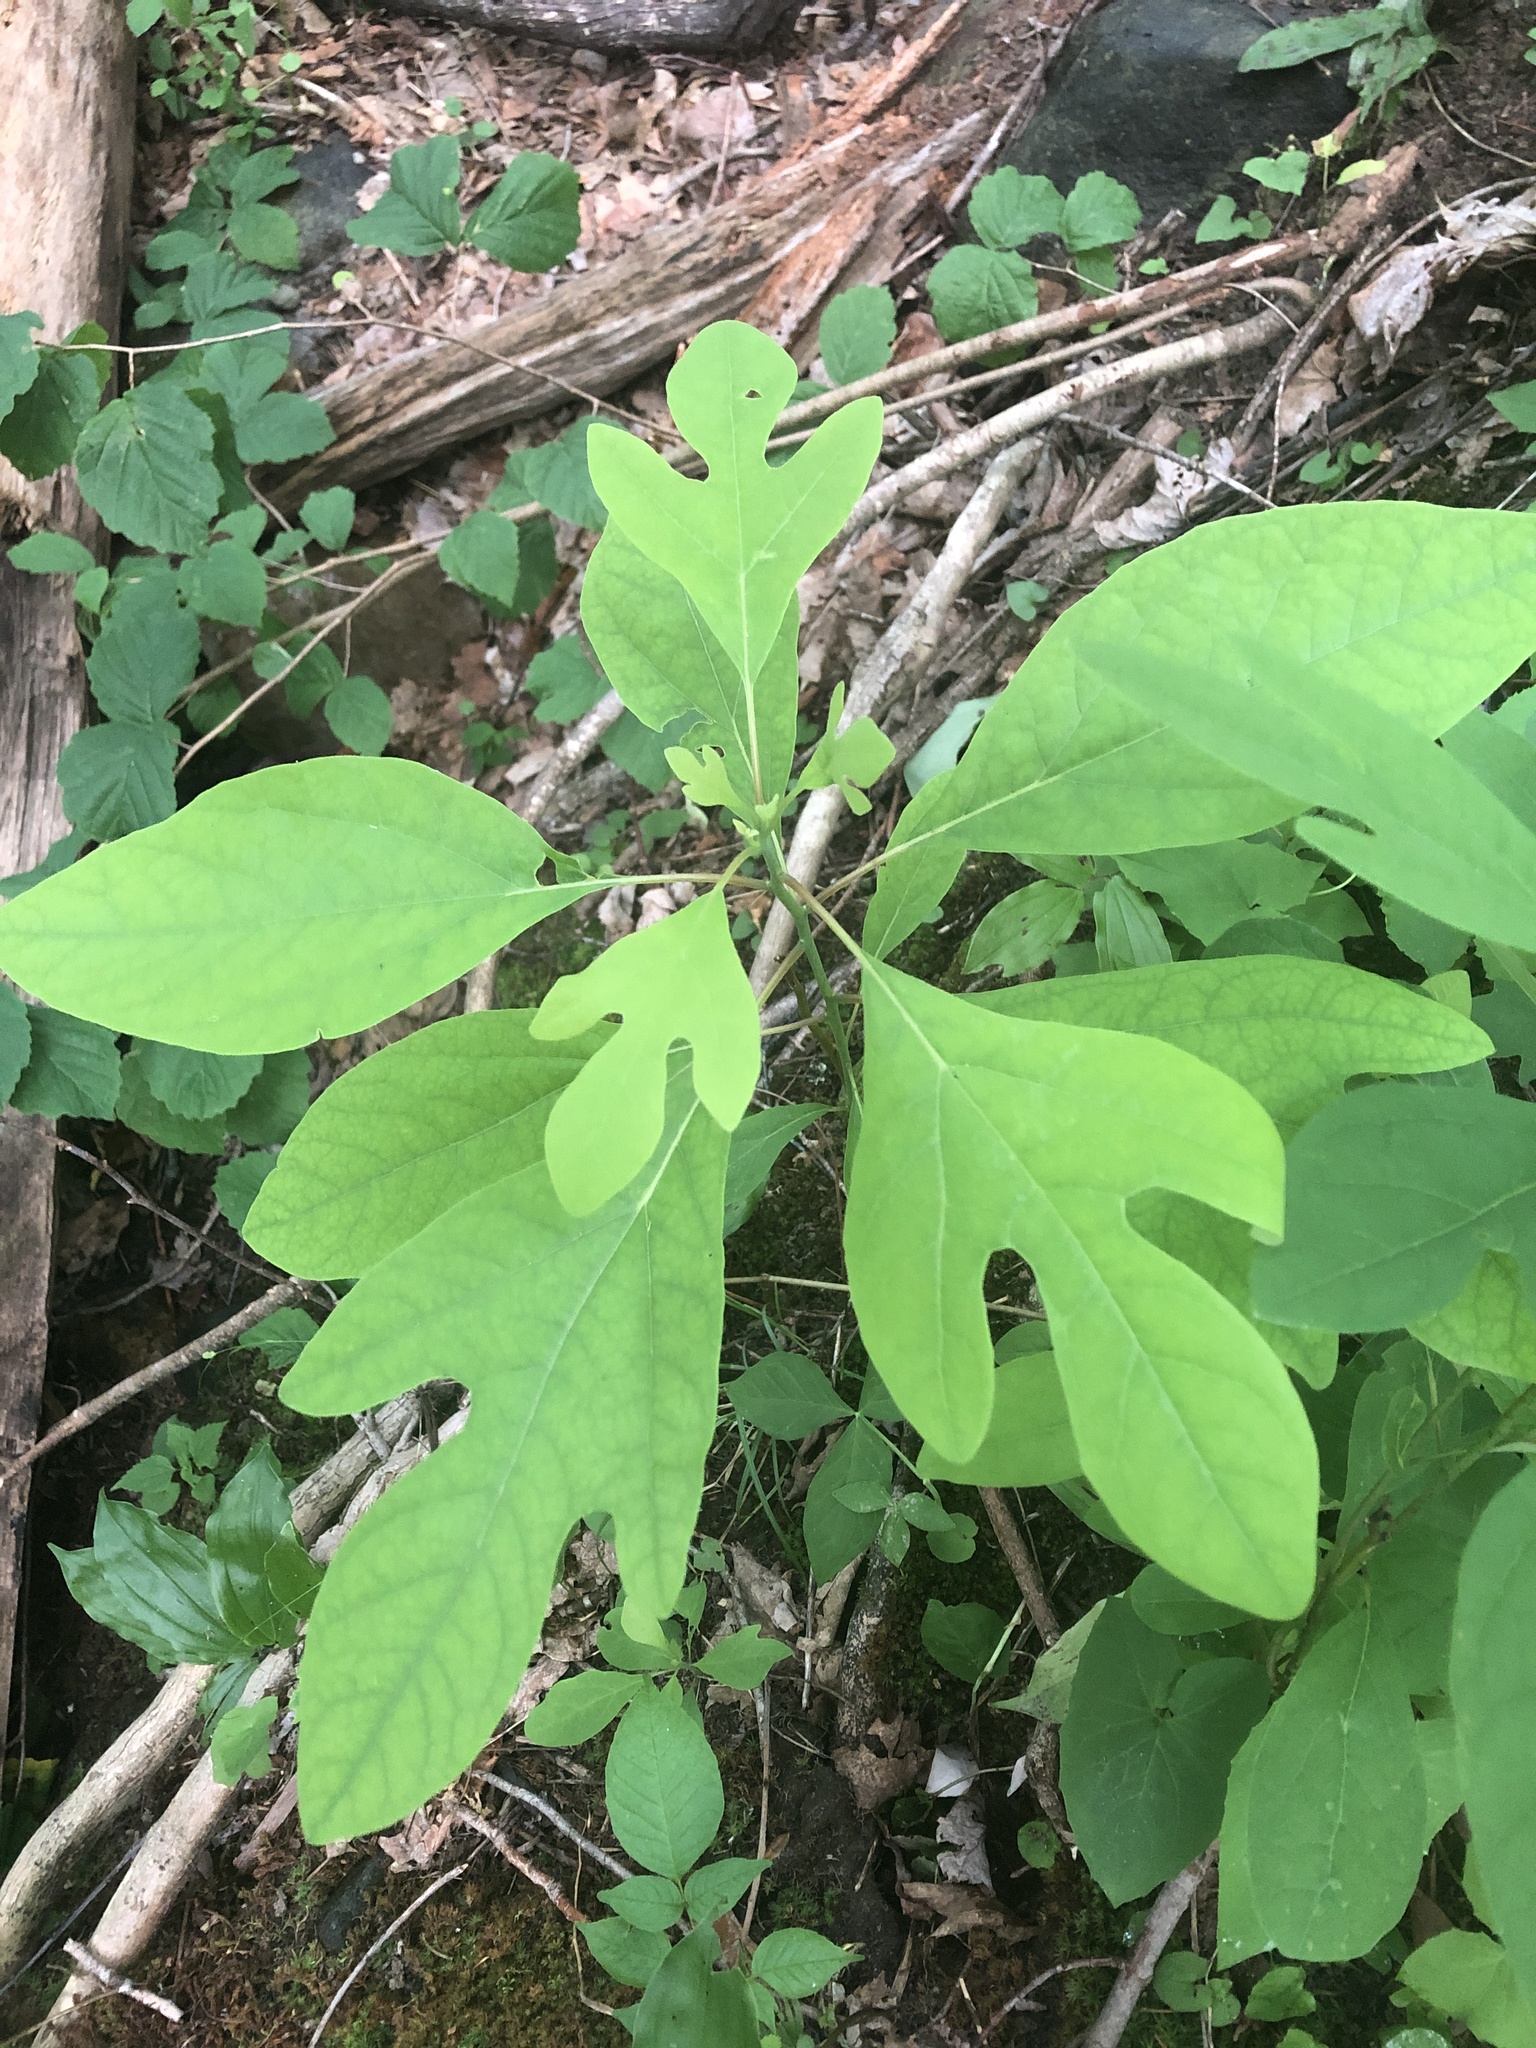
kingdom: Plantae
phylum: Tracheophyta
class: Magnoliopsida
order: Laurales
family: Lauraceae
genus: Sassafras
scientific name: Sassafras albidum
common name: Sassafras
